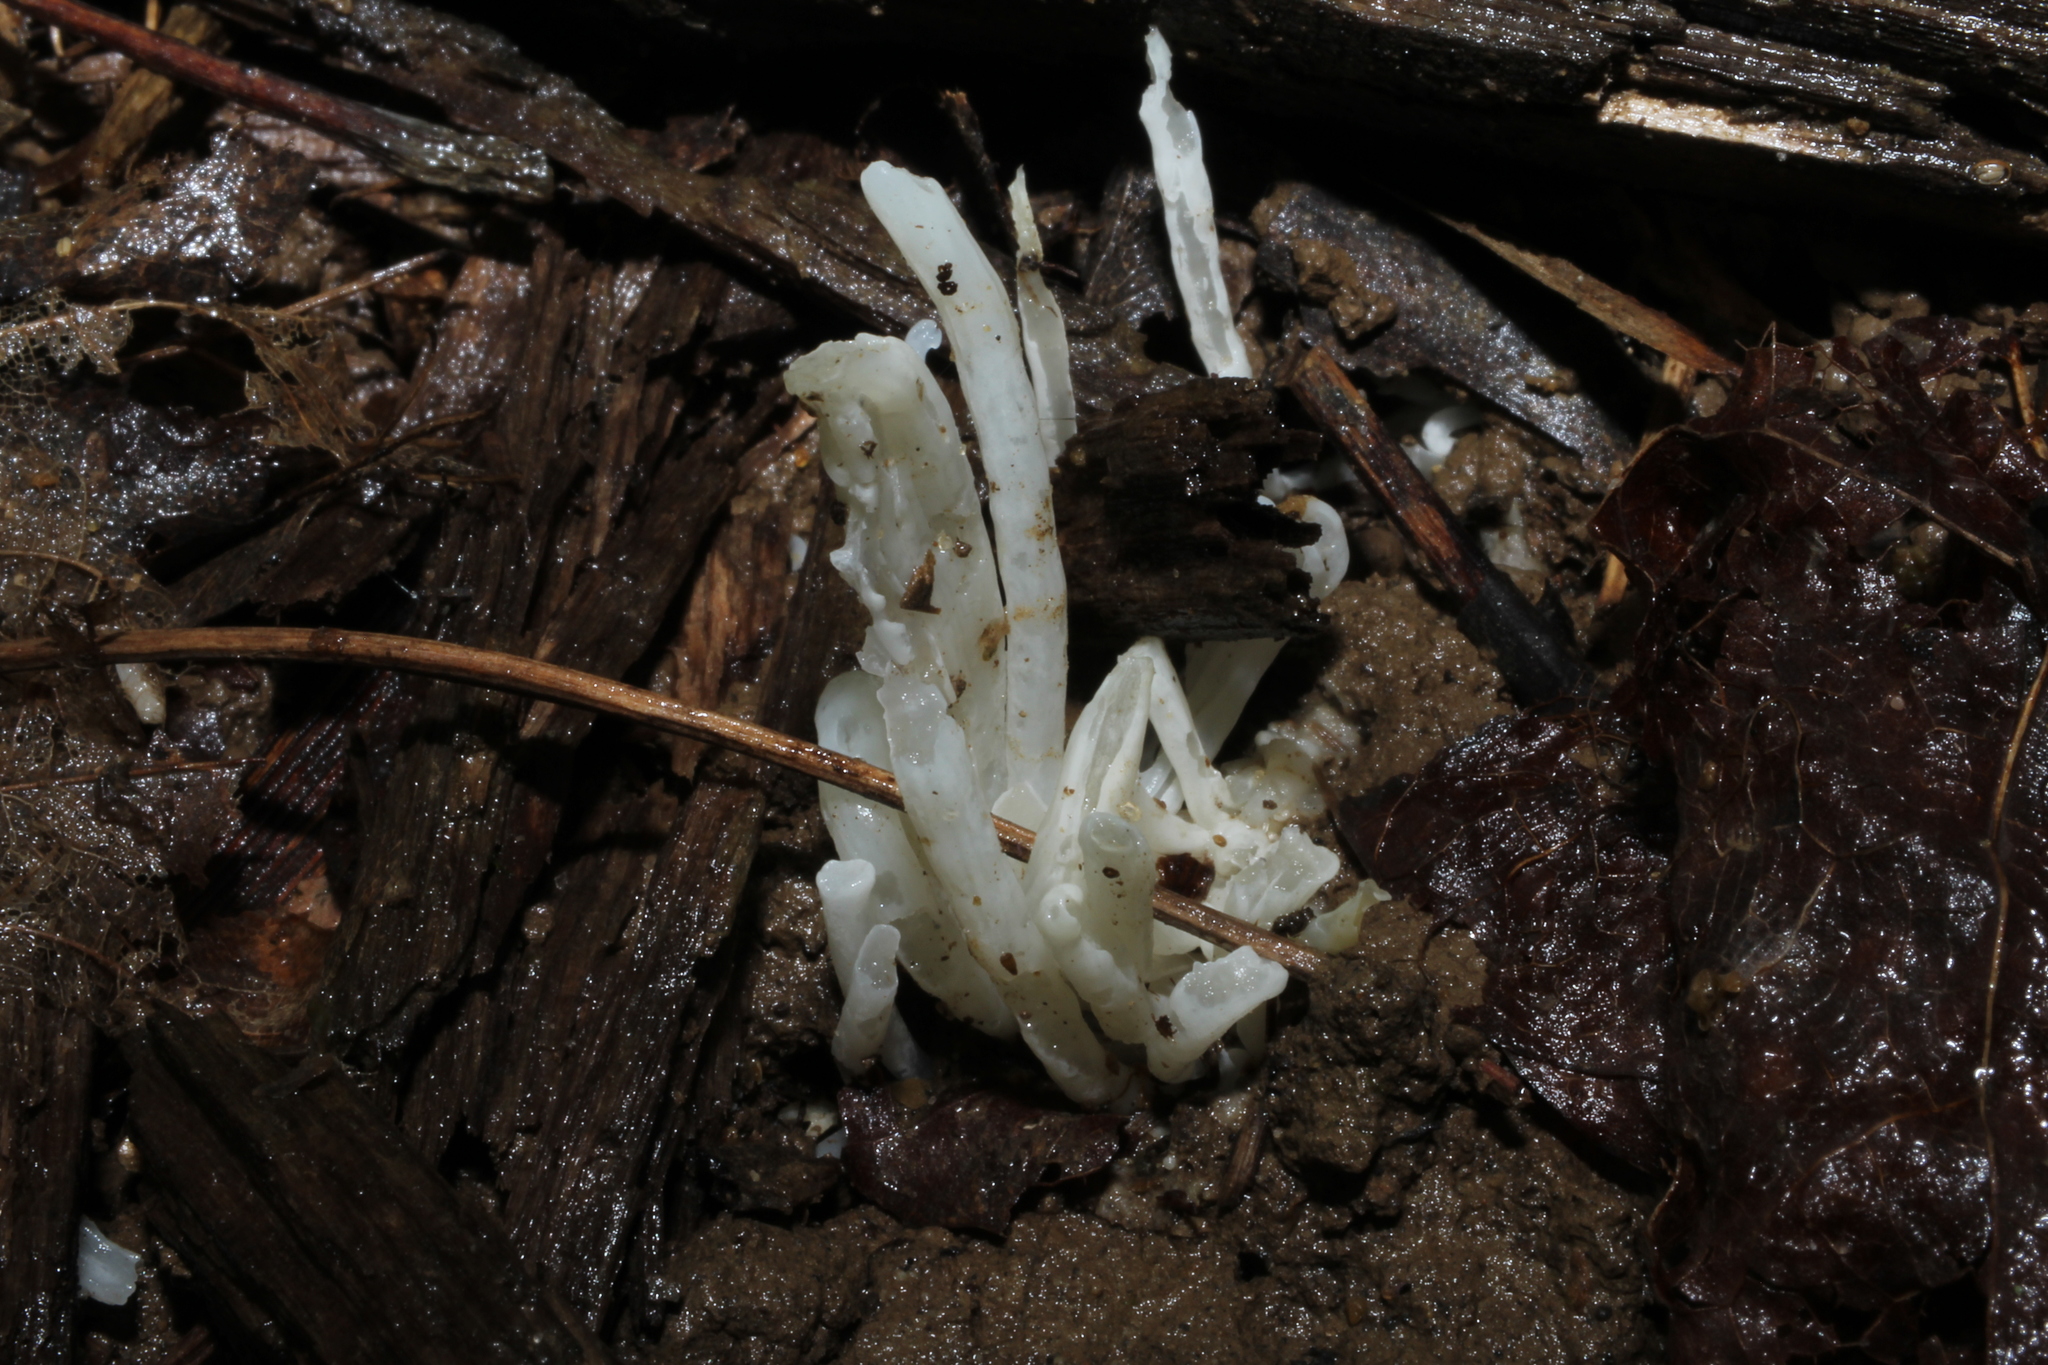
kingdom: Fungi
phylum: Basidiomycota
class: Agaricomycetes
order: Agaricales
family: Clavariaceae
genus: Clavaria
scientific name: Clavaria fragilis
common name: White spindles
